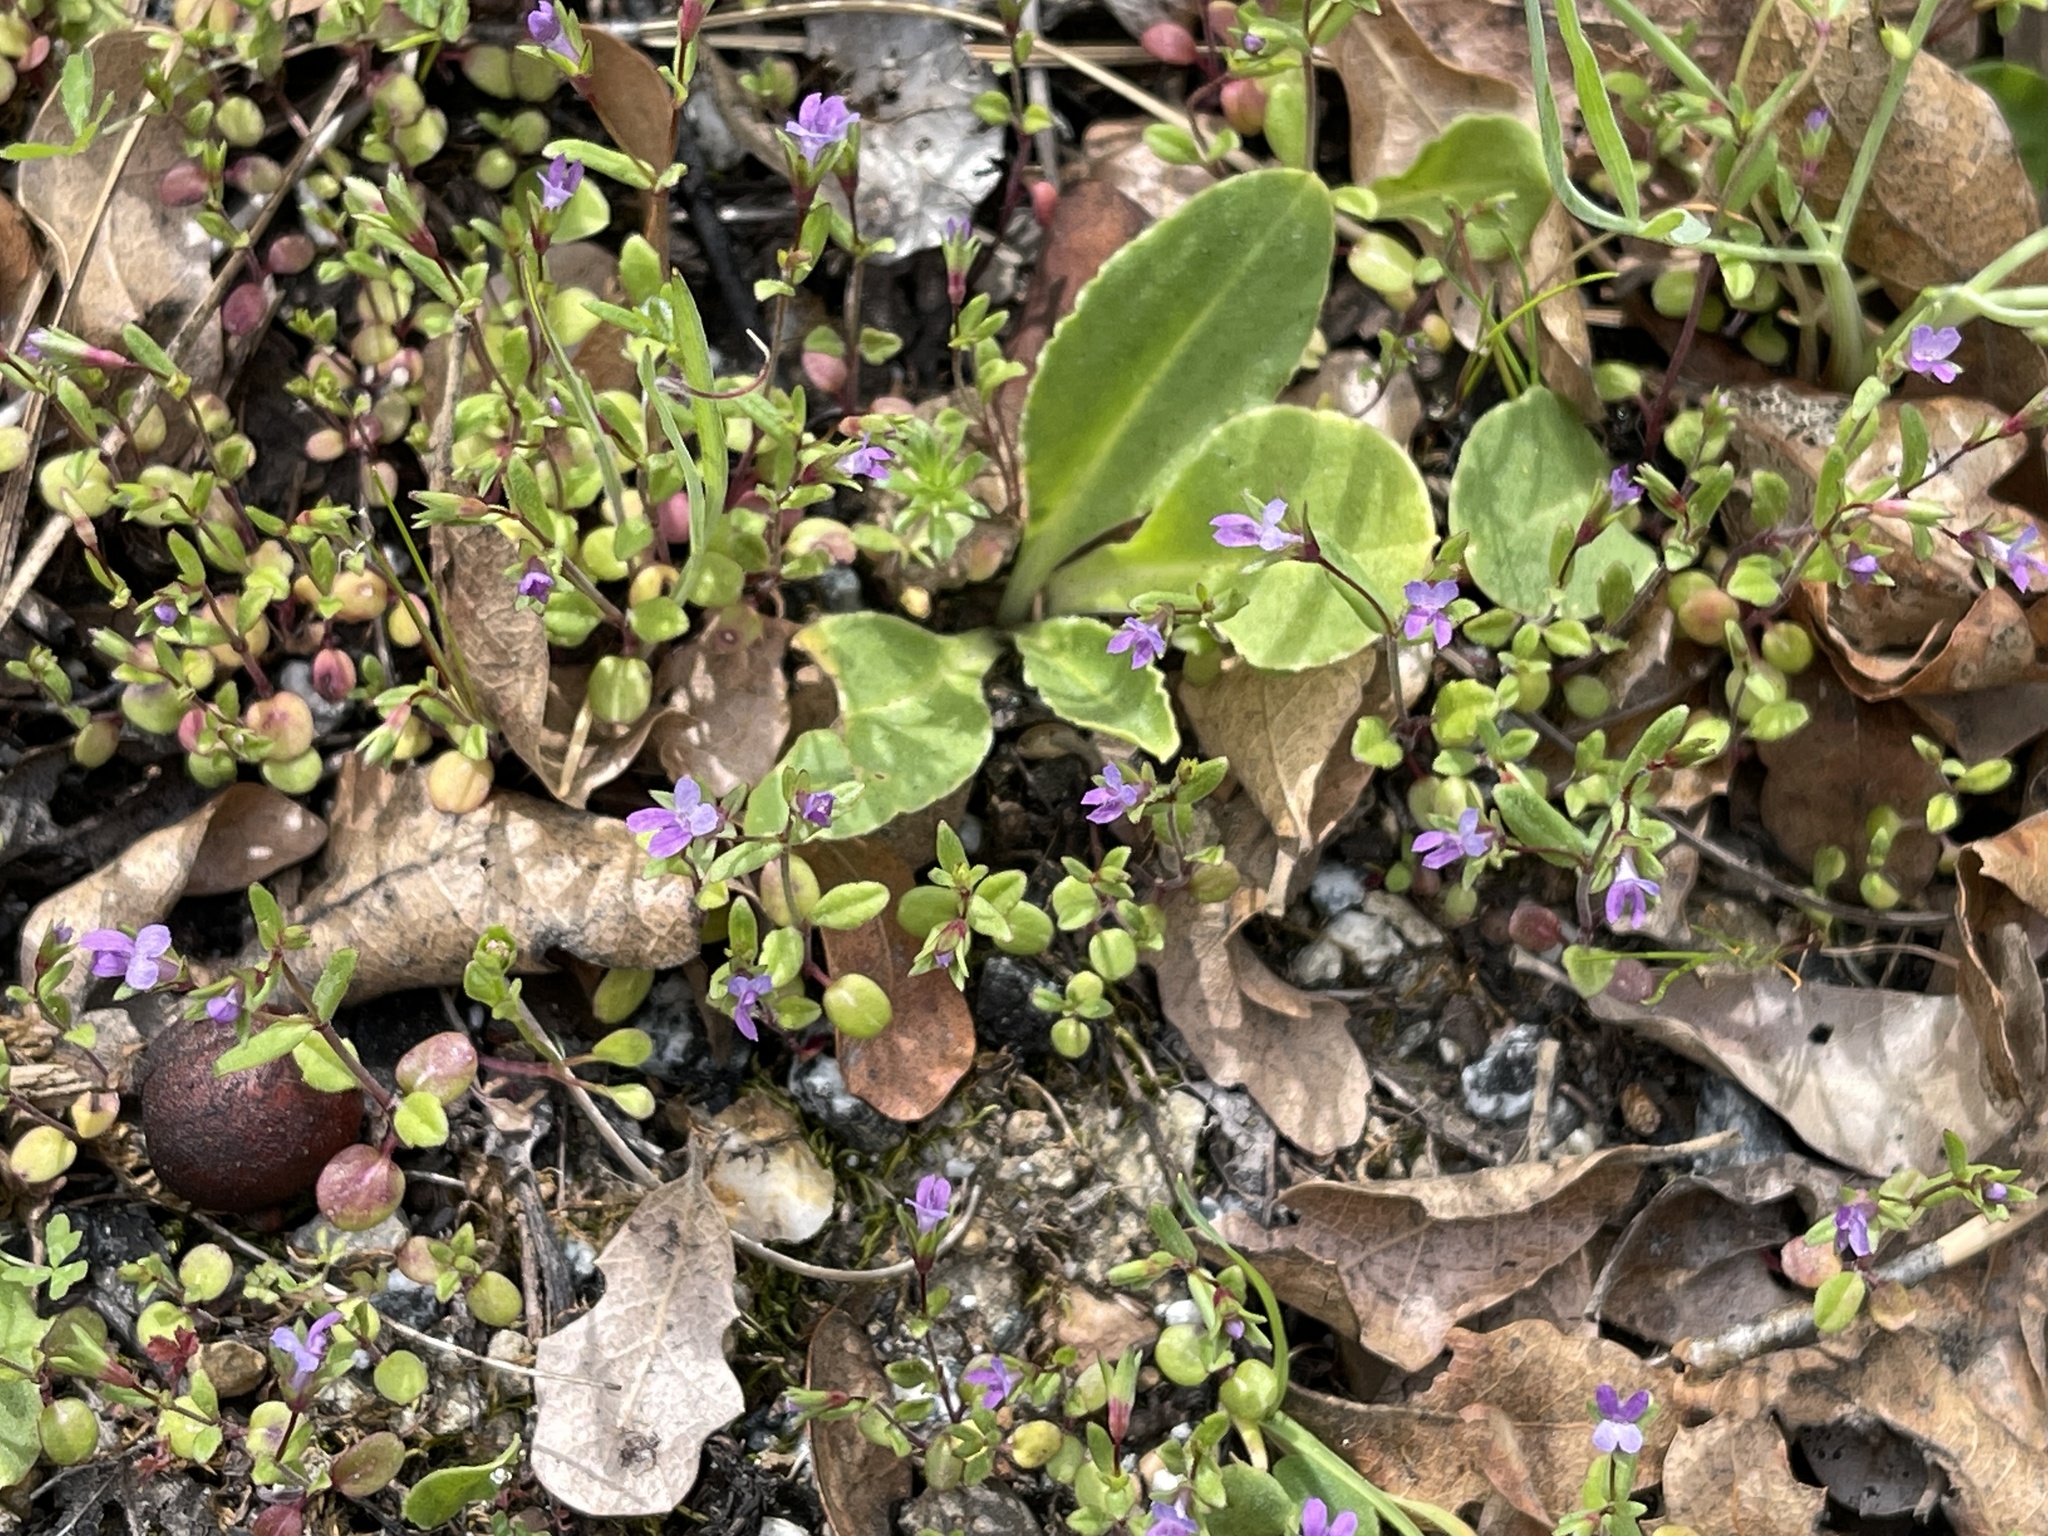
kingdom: Plantae
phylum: Tracheophyta
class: Magnoliopsida
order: Lamiales
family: Plantaginaceae
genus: Collinsia
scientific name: Collinsia sparsiflora
